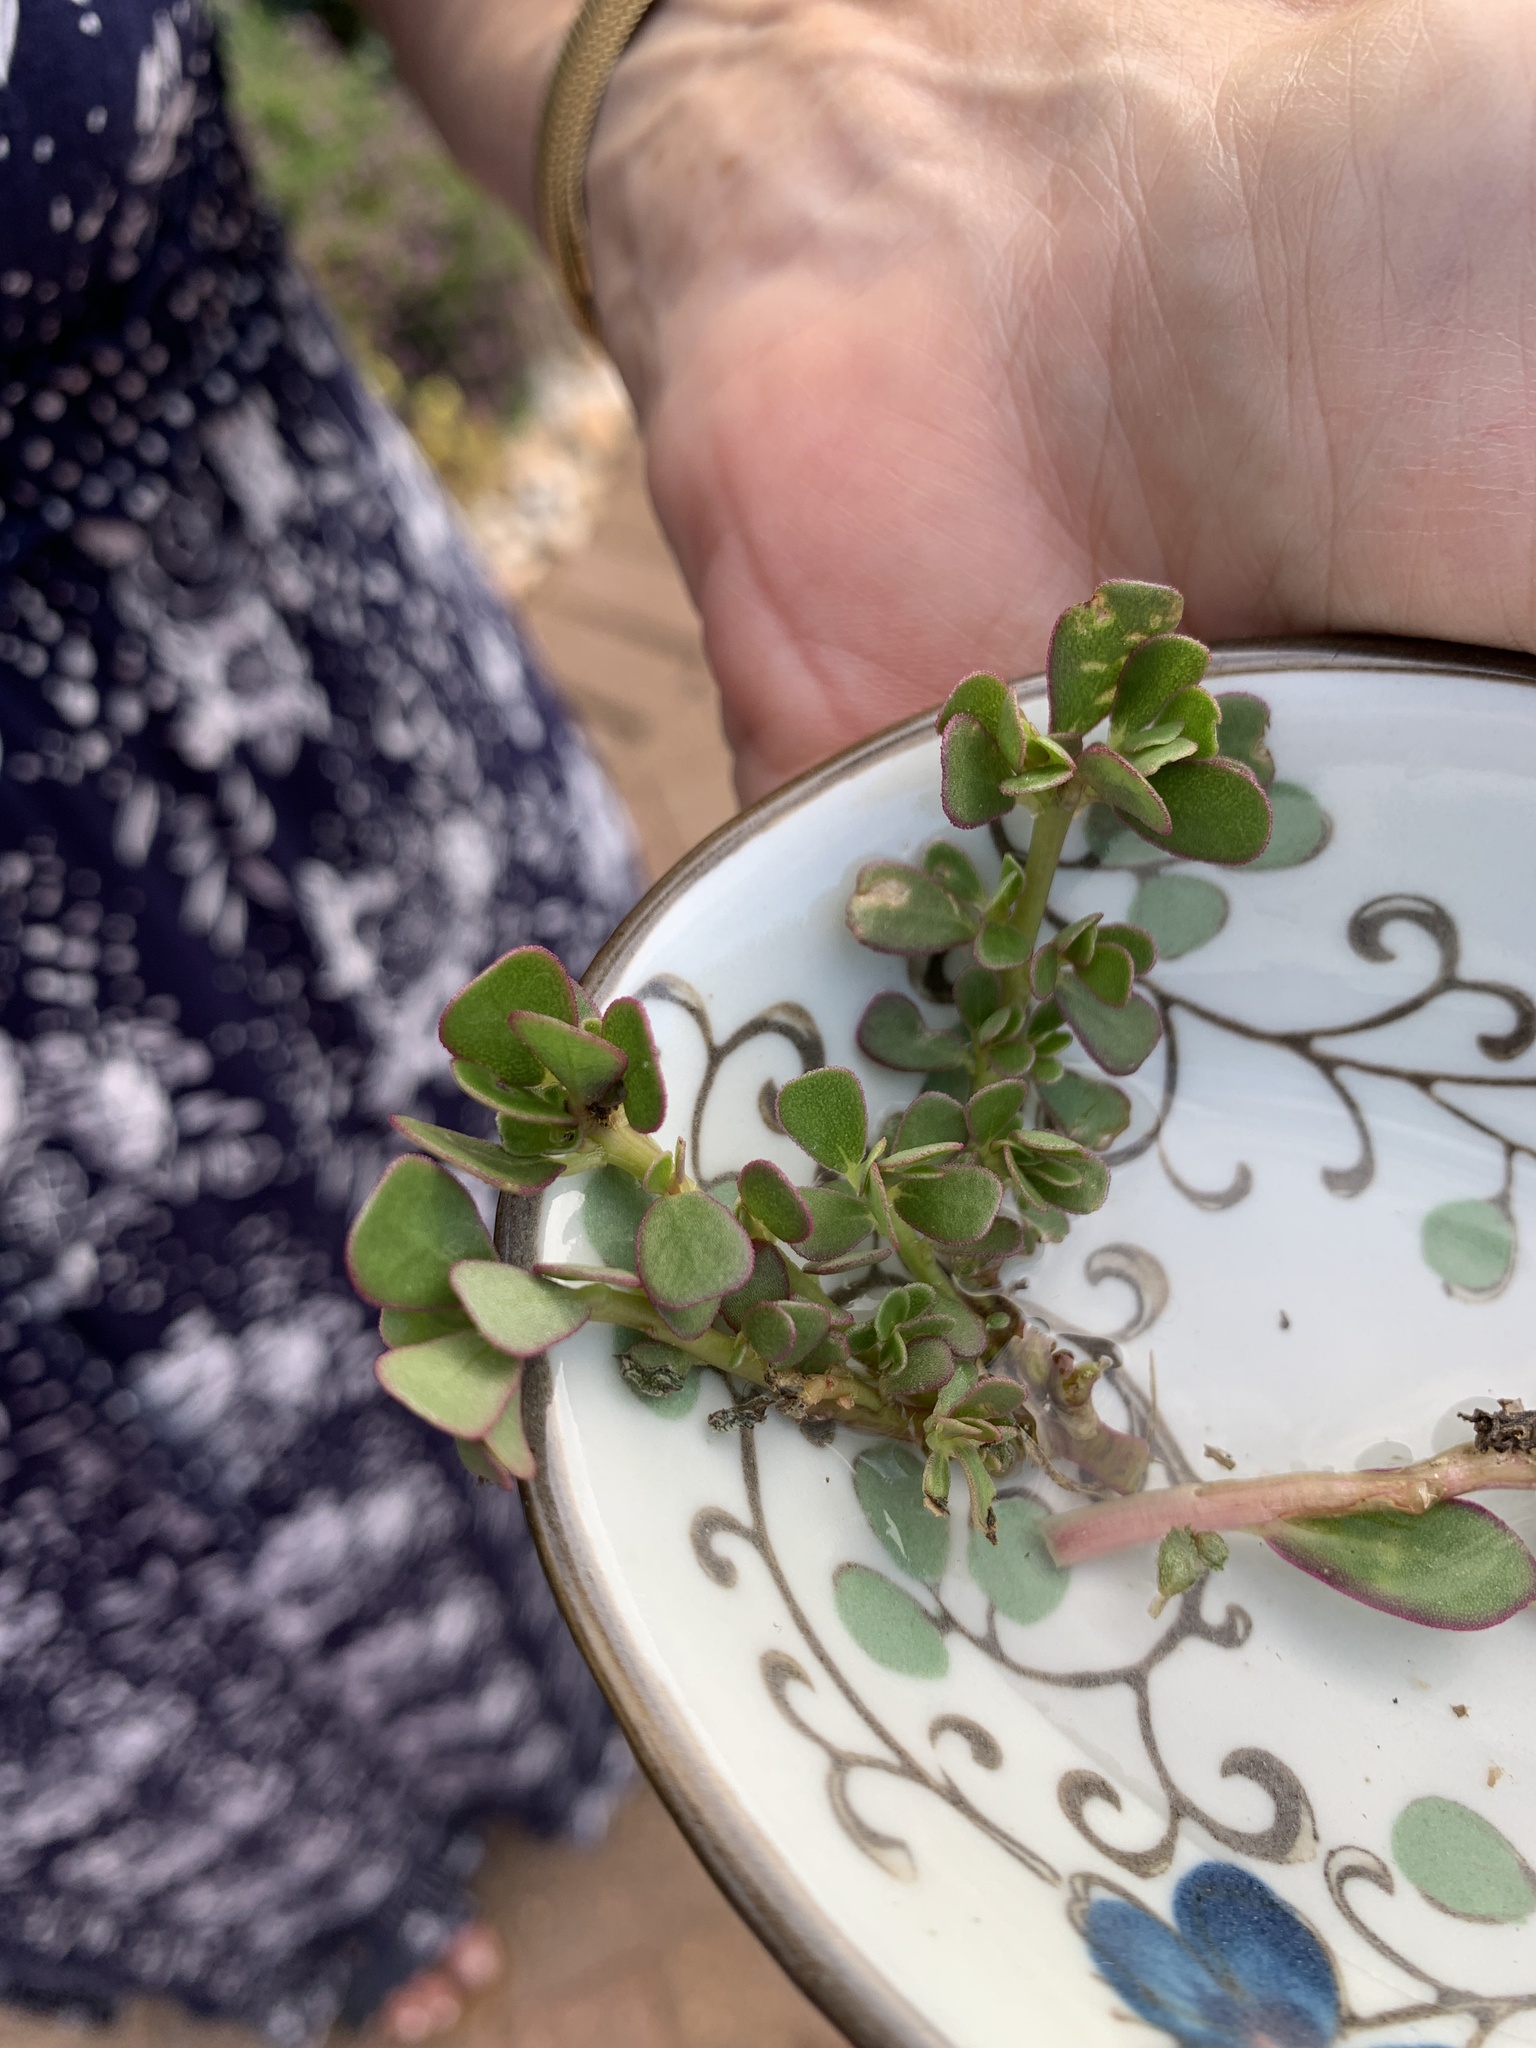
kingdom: Plantae
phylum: Tracheophyta
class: Magnoliopsida
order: Caryophyllales
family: Portulacaceae
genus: Portulaca
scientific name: Portulaca oleracea
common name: Common purslane
